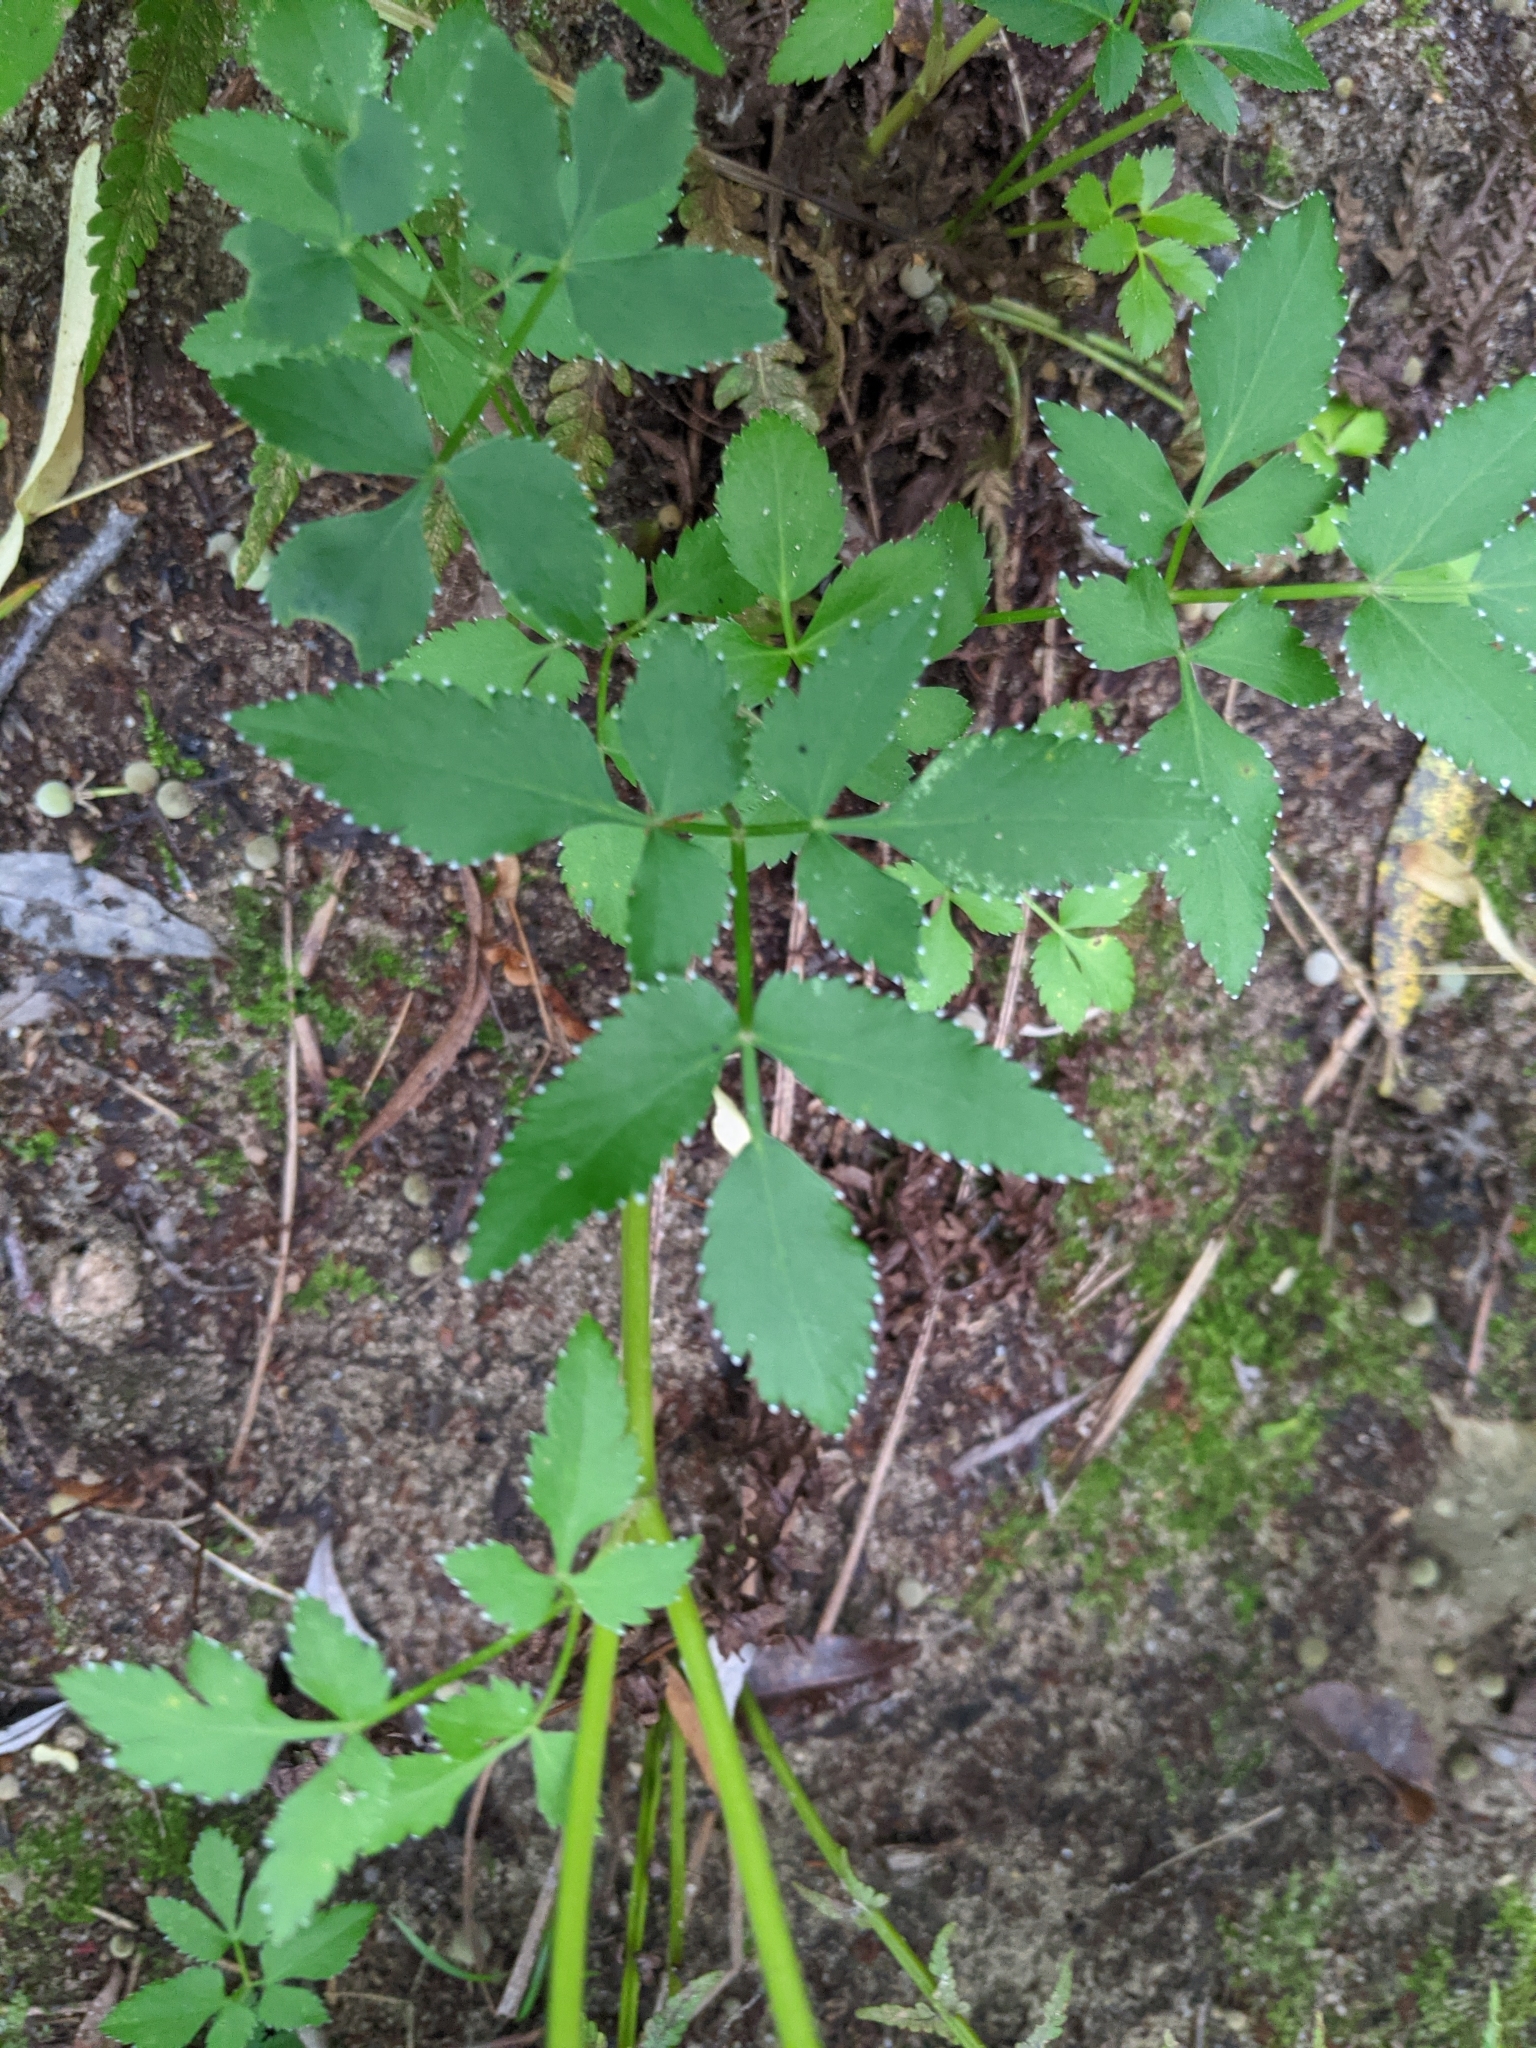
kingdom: Plantae
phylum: Tracheophyta
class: Magnoliopsida
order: Apiales
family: Apiaceae
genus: Zizia
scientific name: Zizia aurea
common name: Golden alexanders
